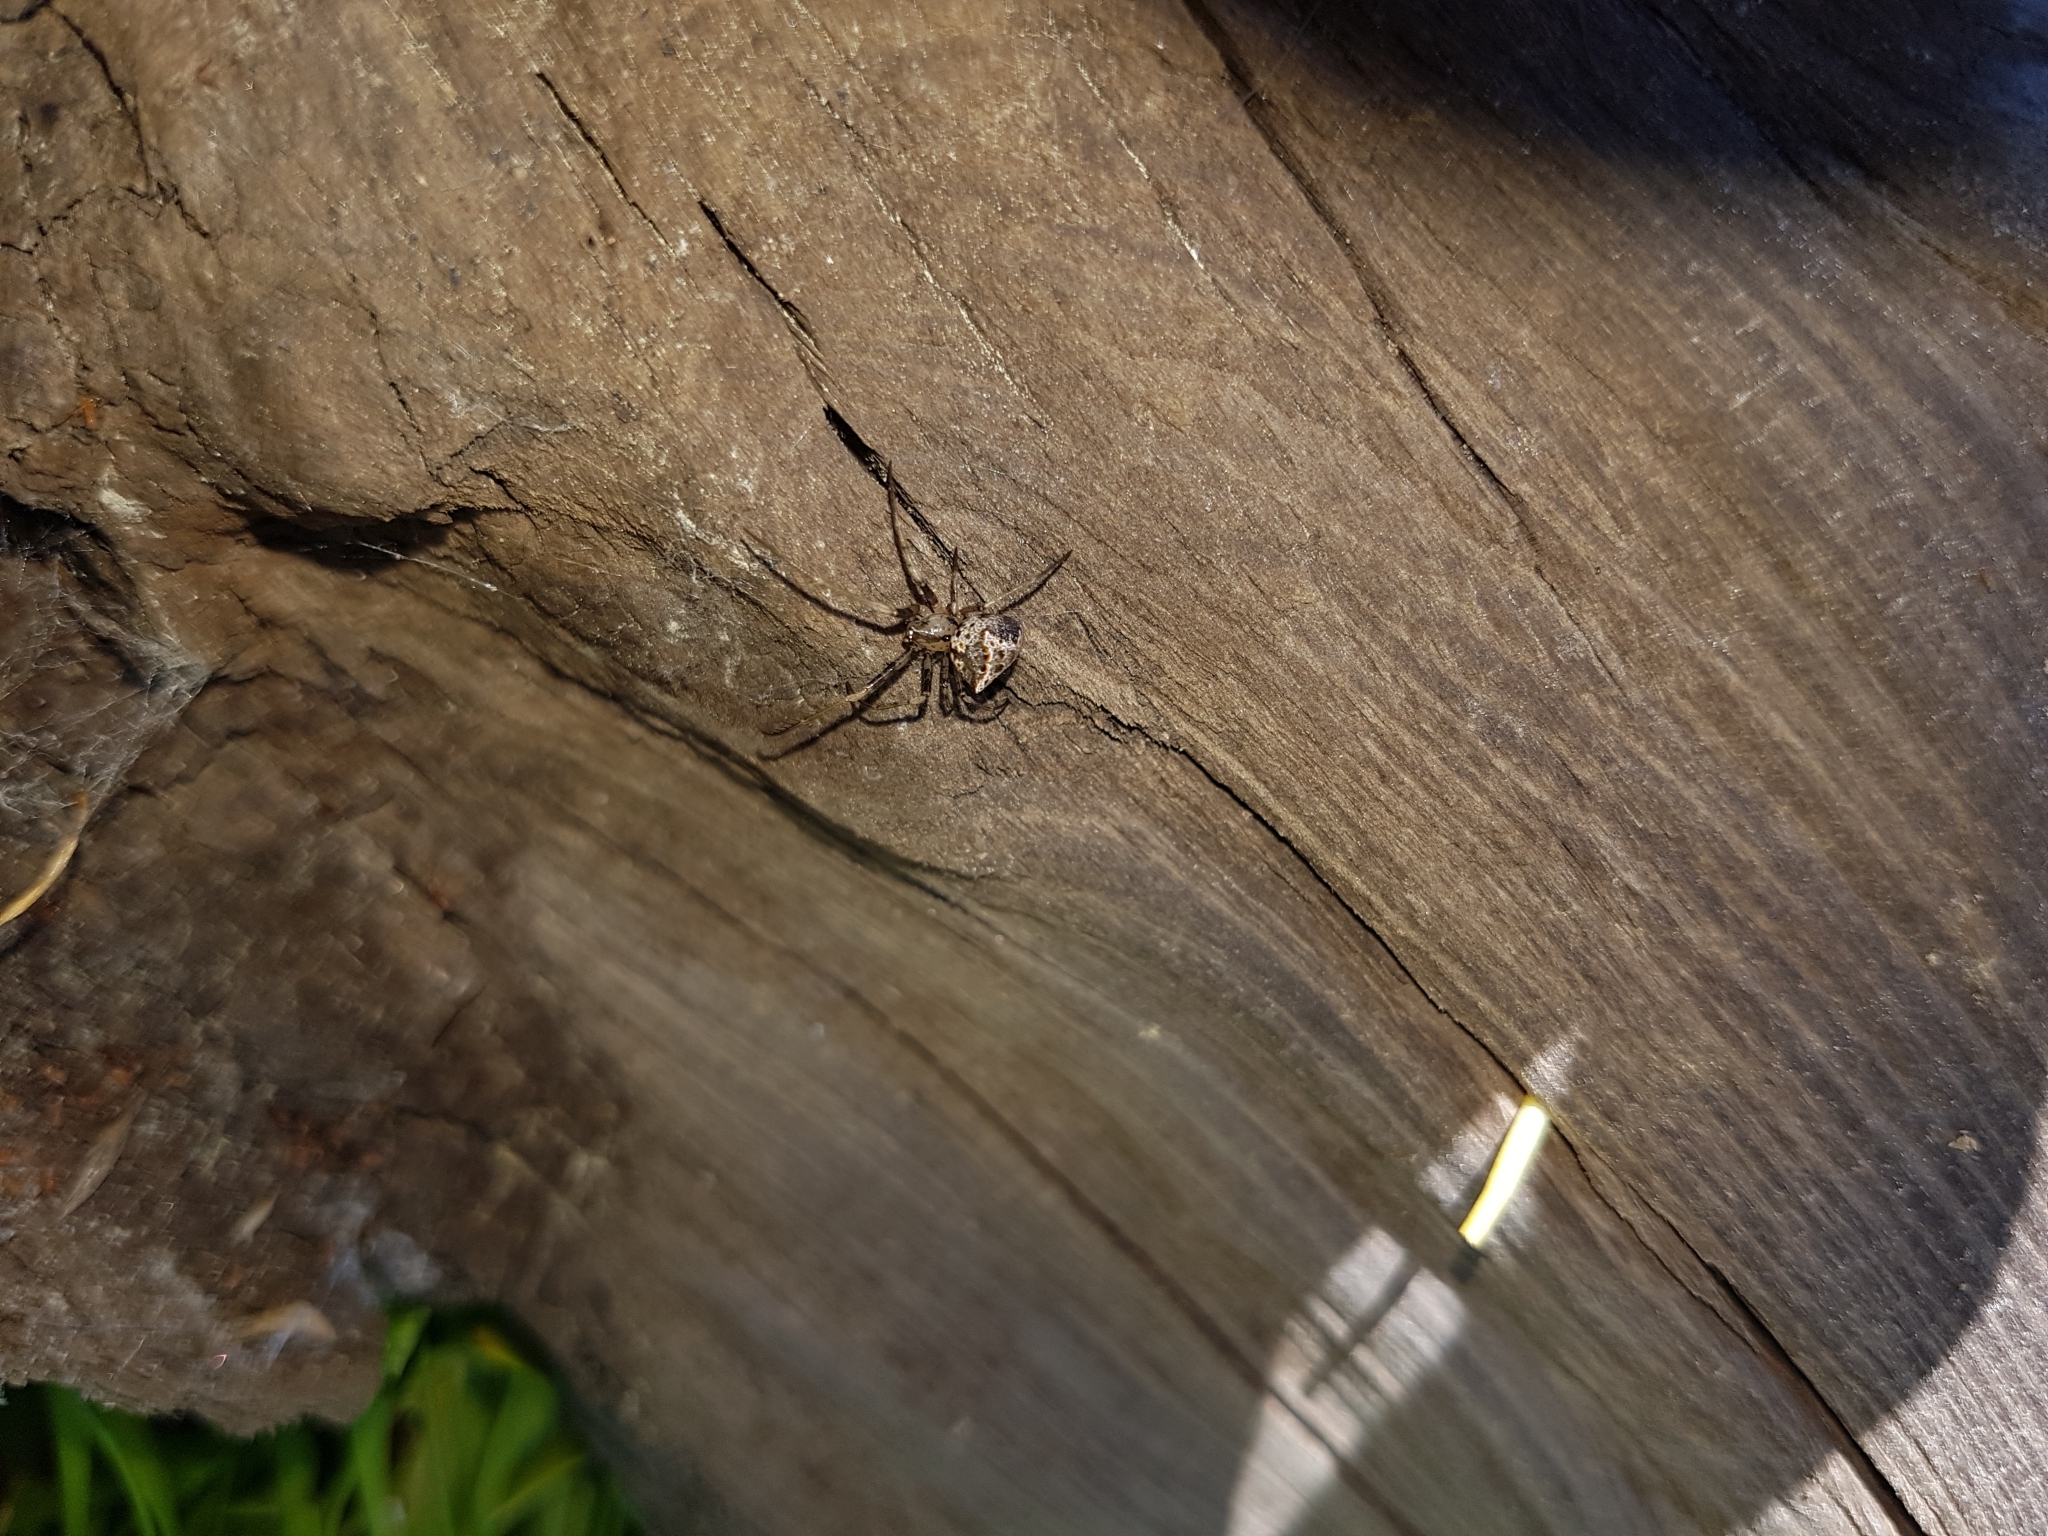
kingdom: Animalia
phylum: Arthropoda
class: Arachnida
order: Araneae
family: Mimetidae
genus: Australomimetus
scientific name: Australomimetus hartleyensis
